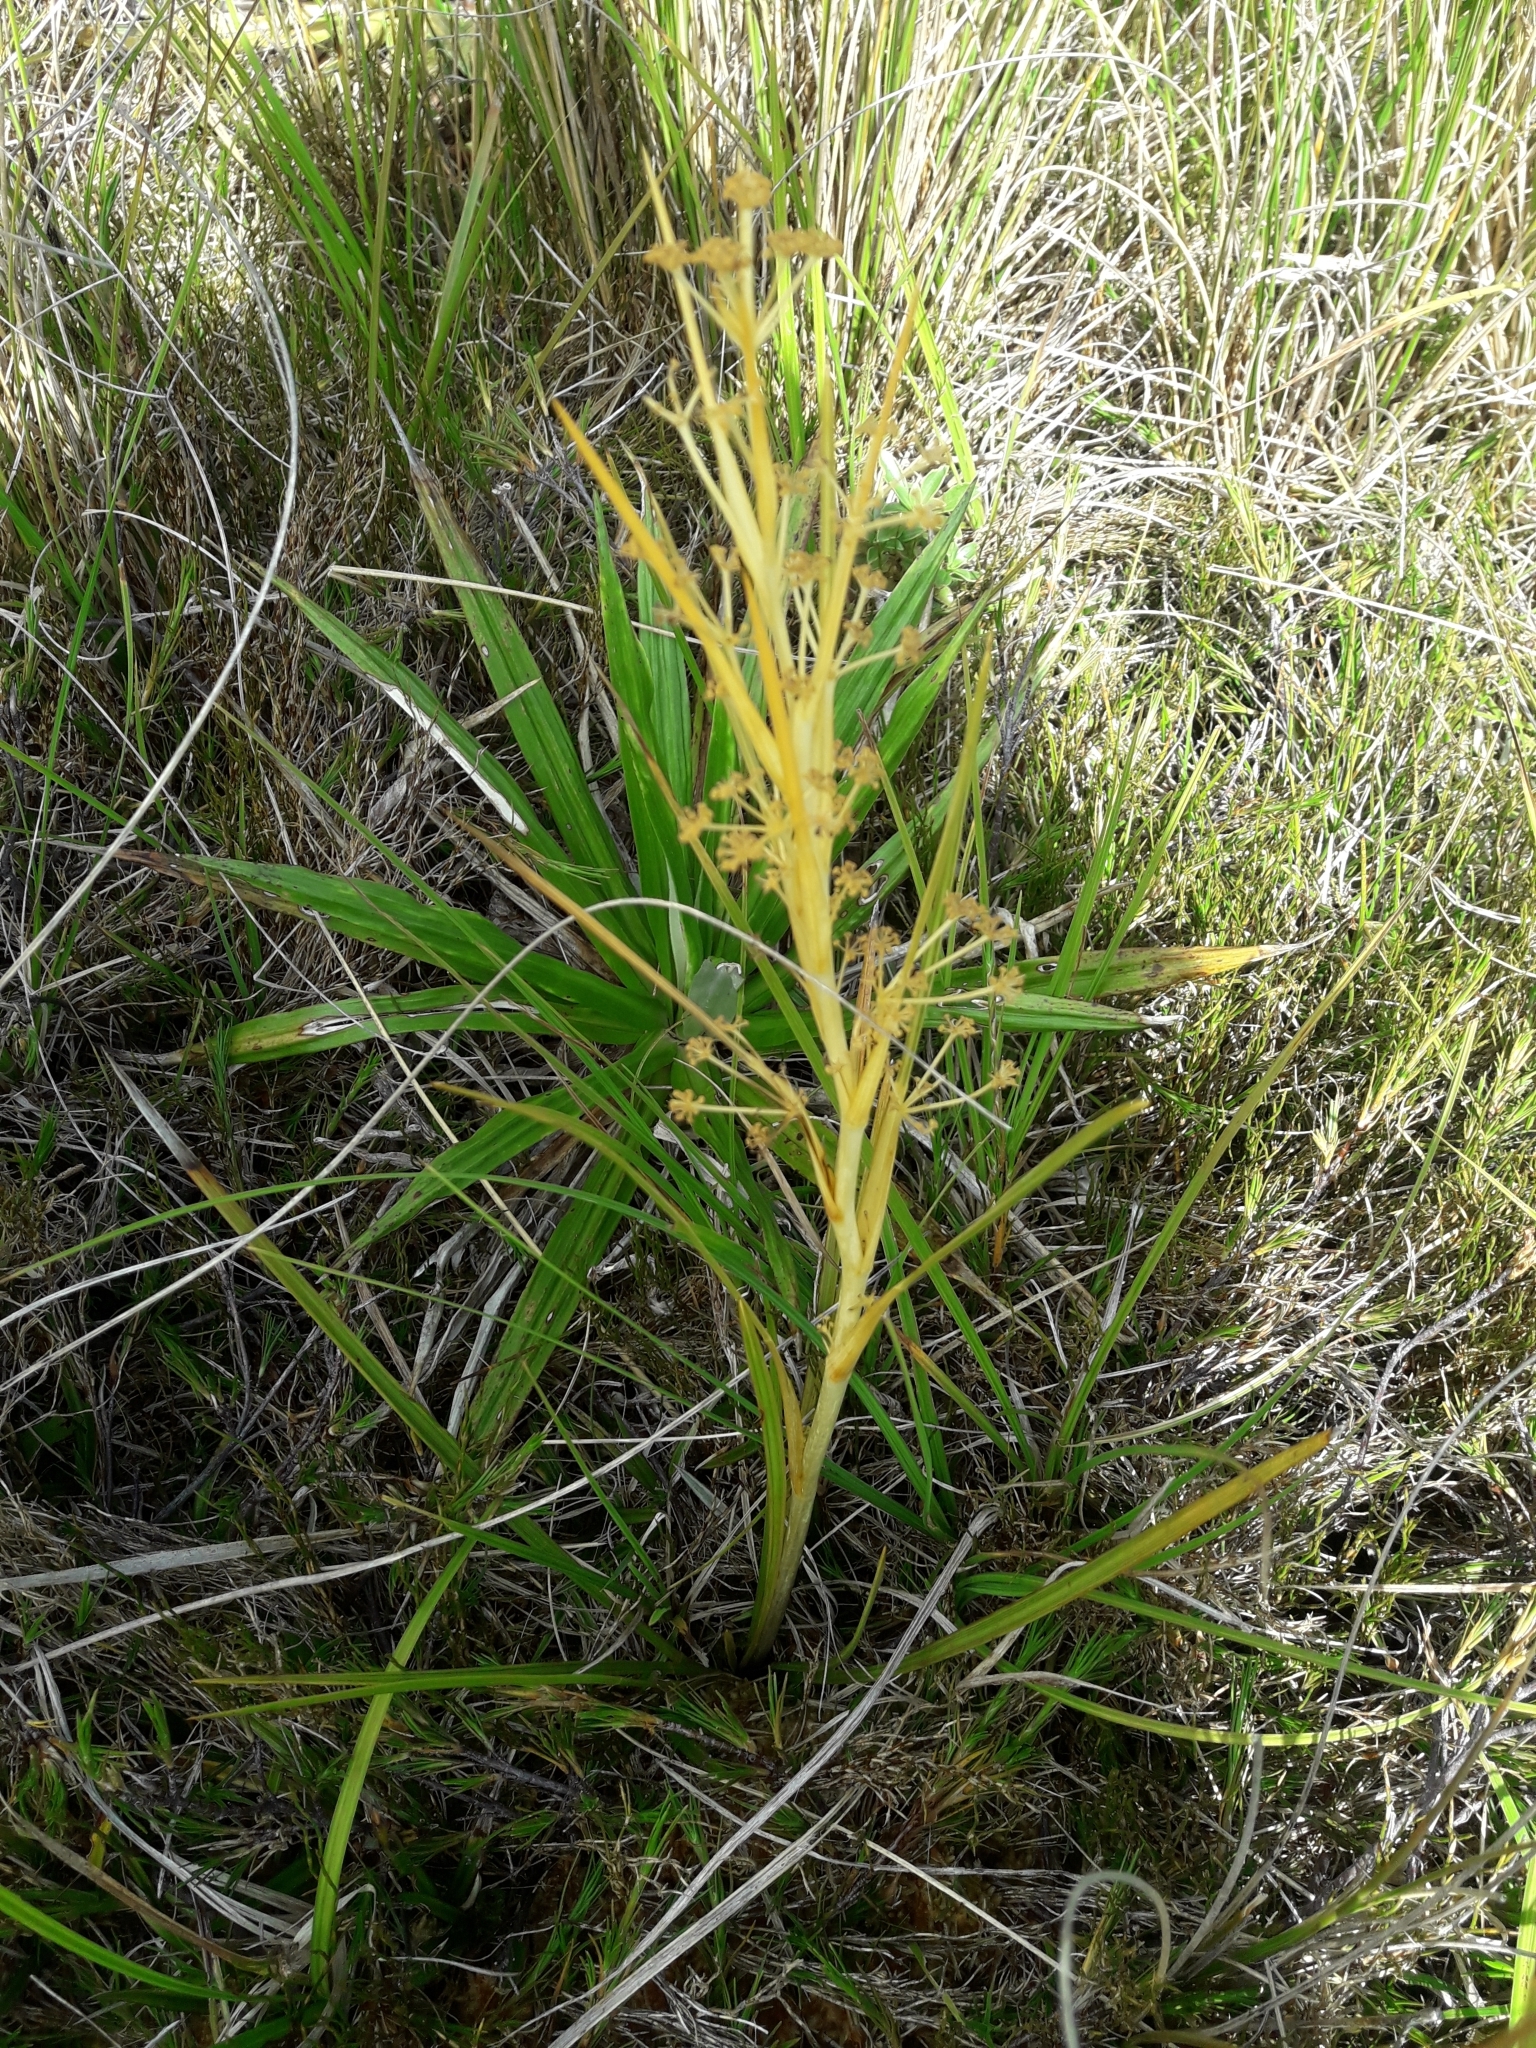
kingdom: Plantae
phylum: Tracheophyta
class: Magnoliopsida
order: Apiales
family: Apiaceae
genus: Aciphylla
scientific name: Aciphylla anomala
